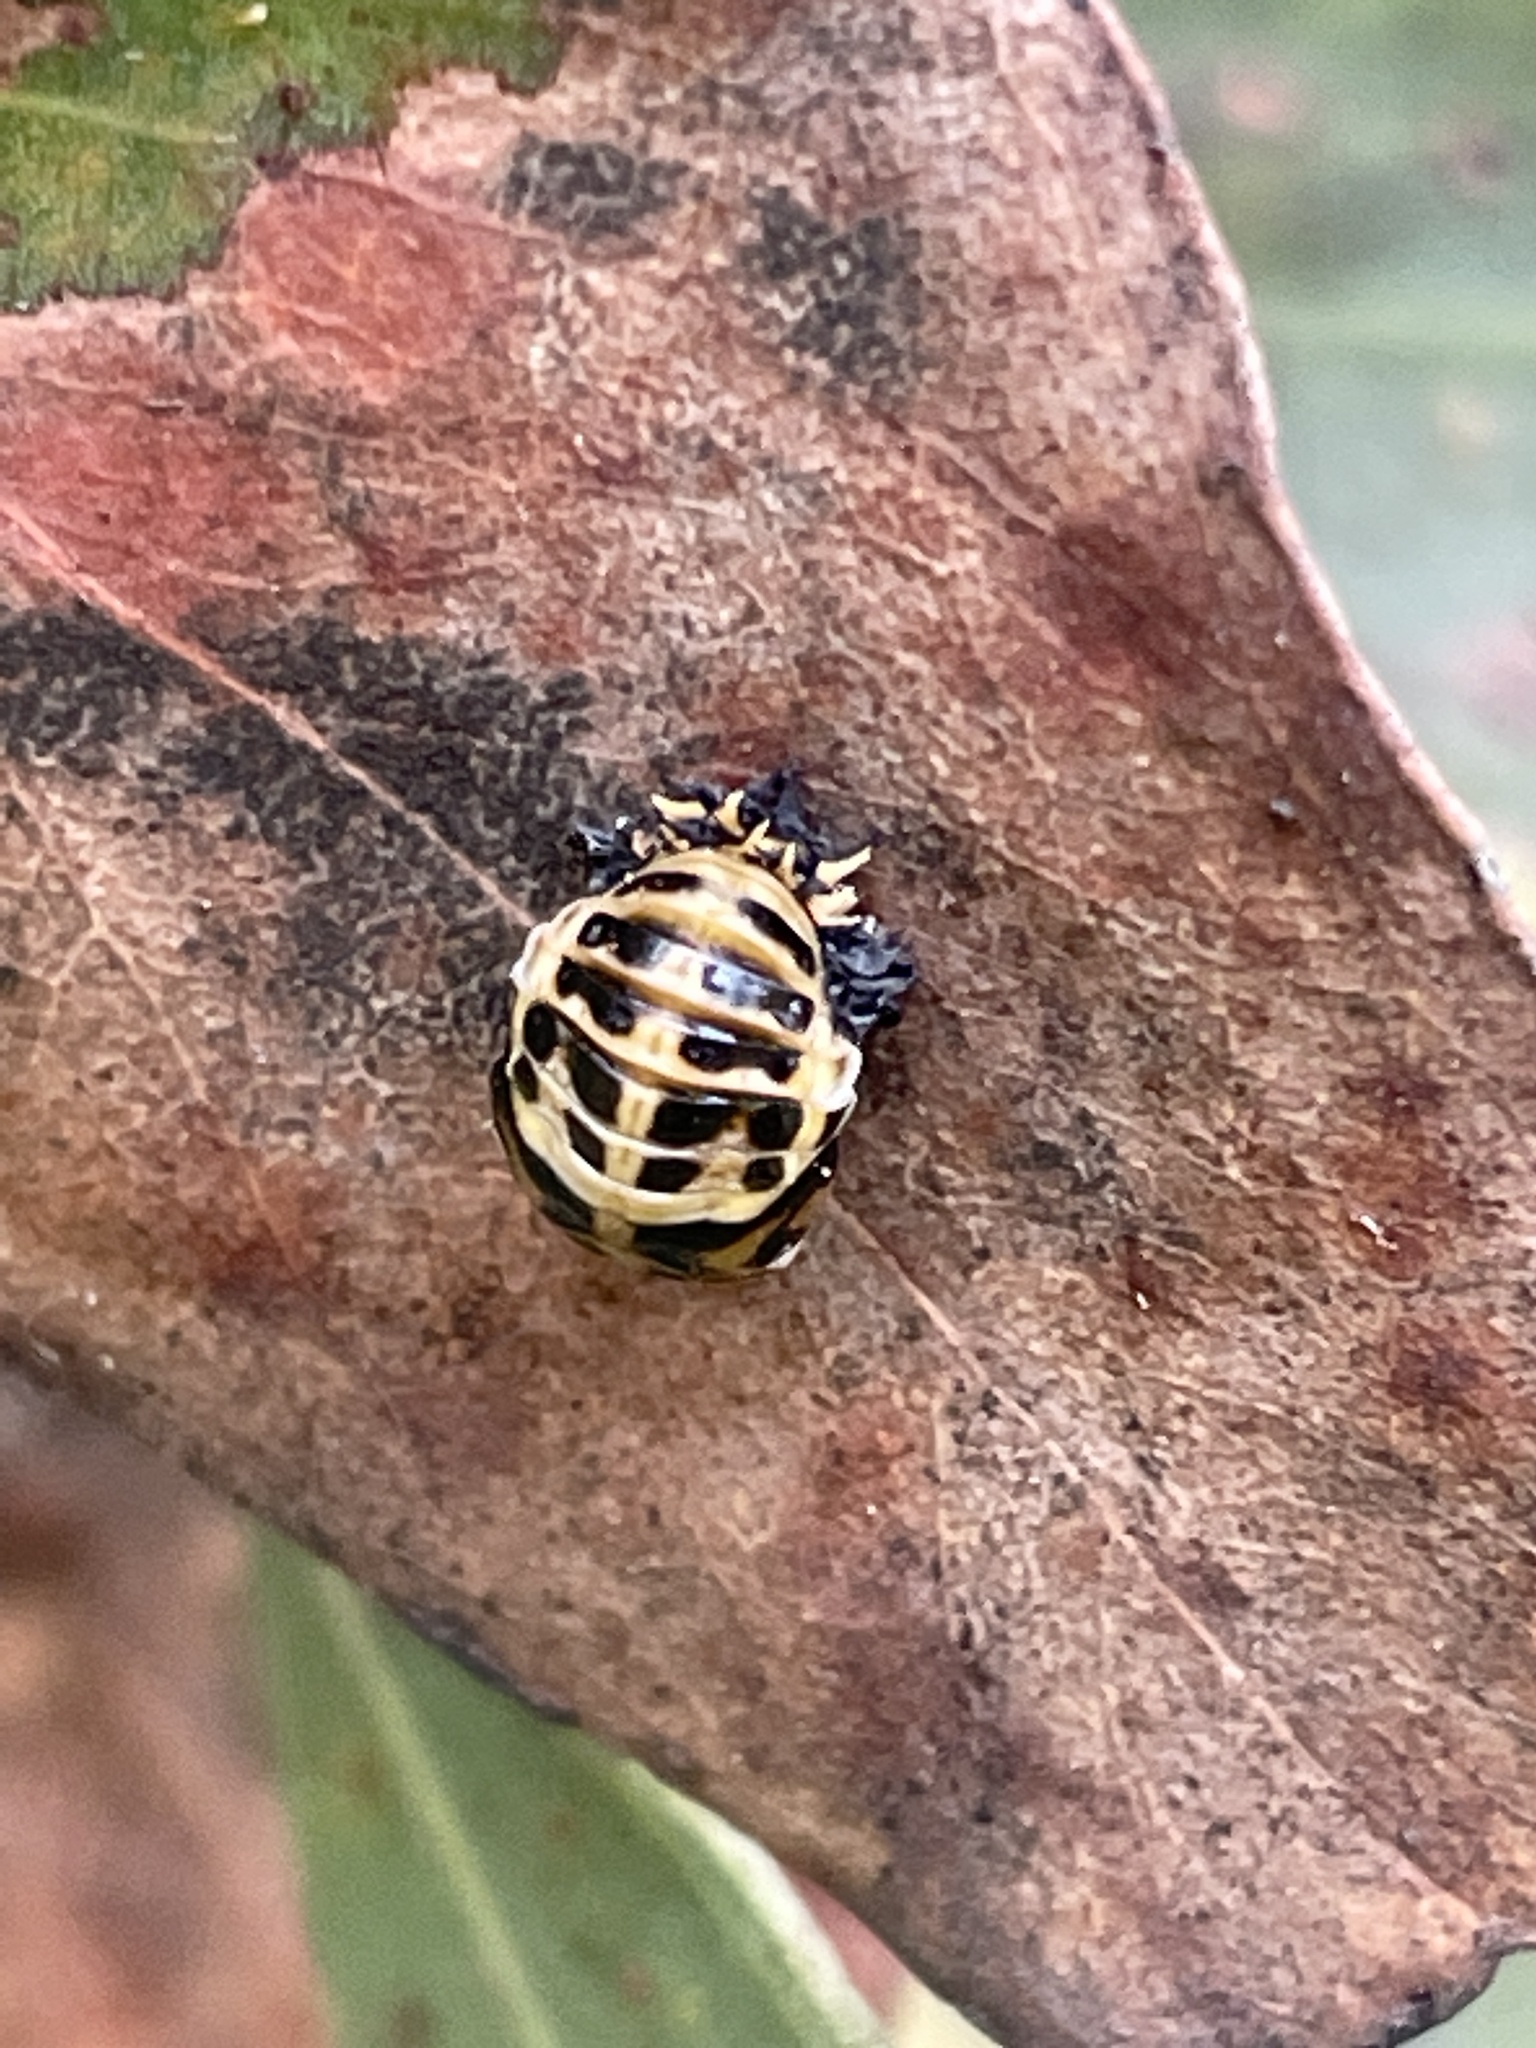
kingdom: Animalia
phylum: Arthropoda
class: Insecta
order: Coleoptera
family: Coccinellidae
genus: Harmonia
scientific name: Harmonia conformis
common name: Common spotted ladybird beetle
